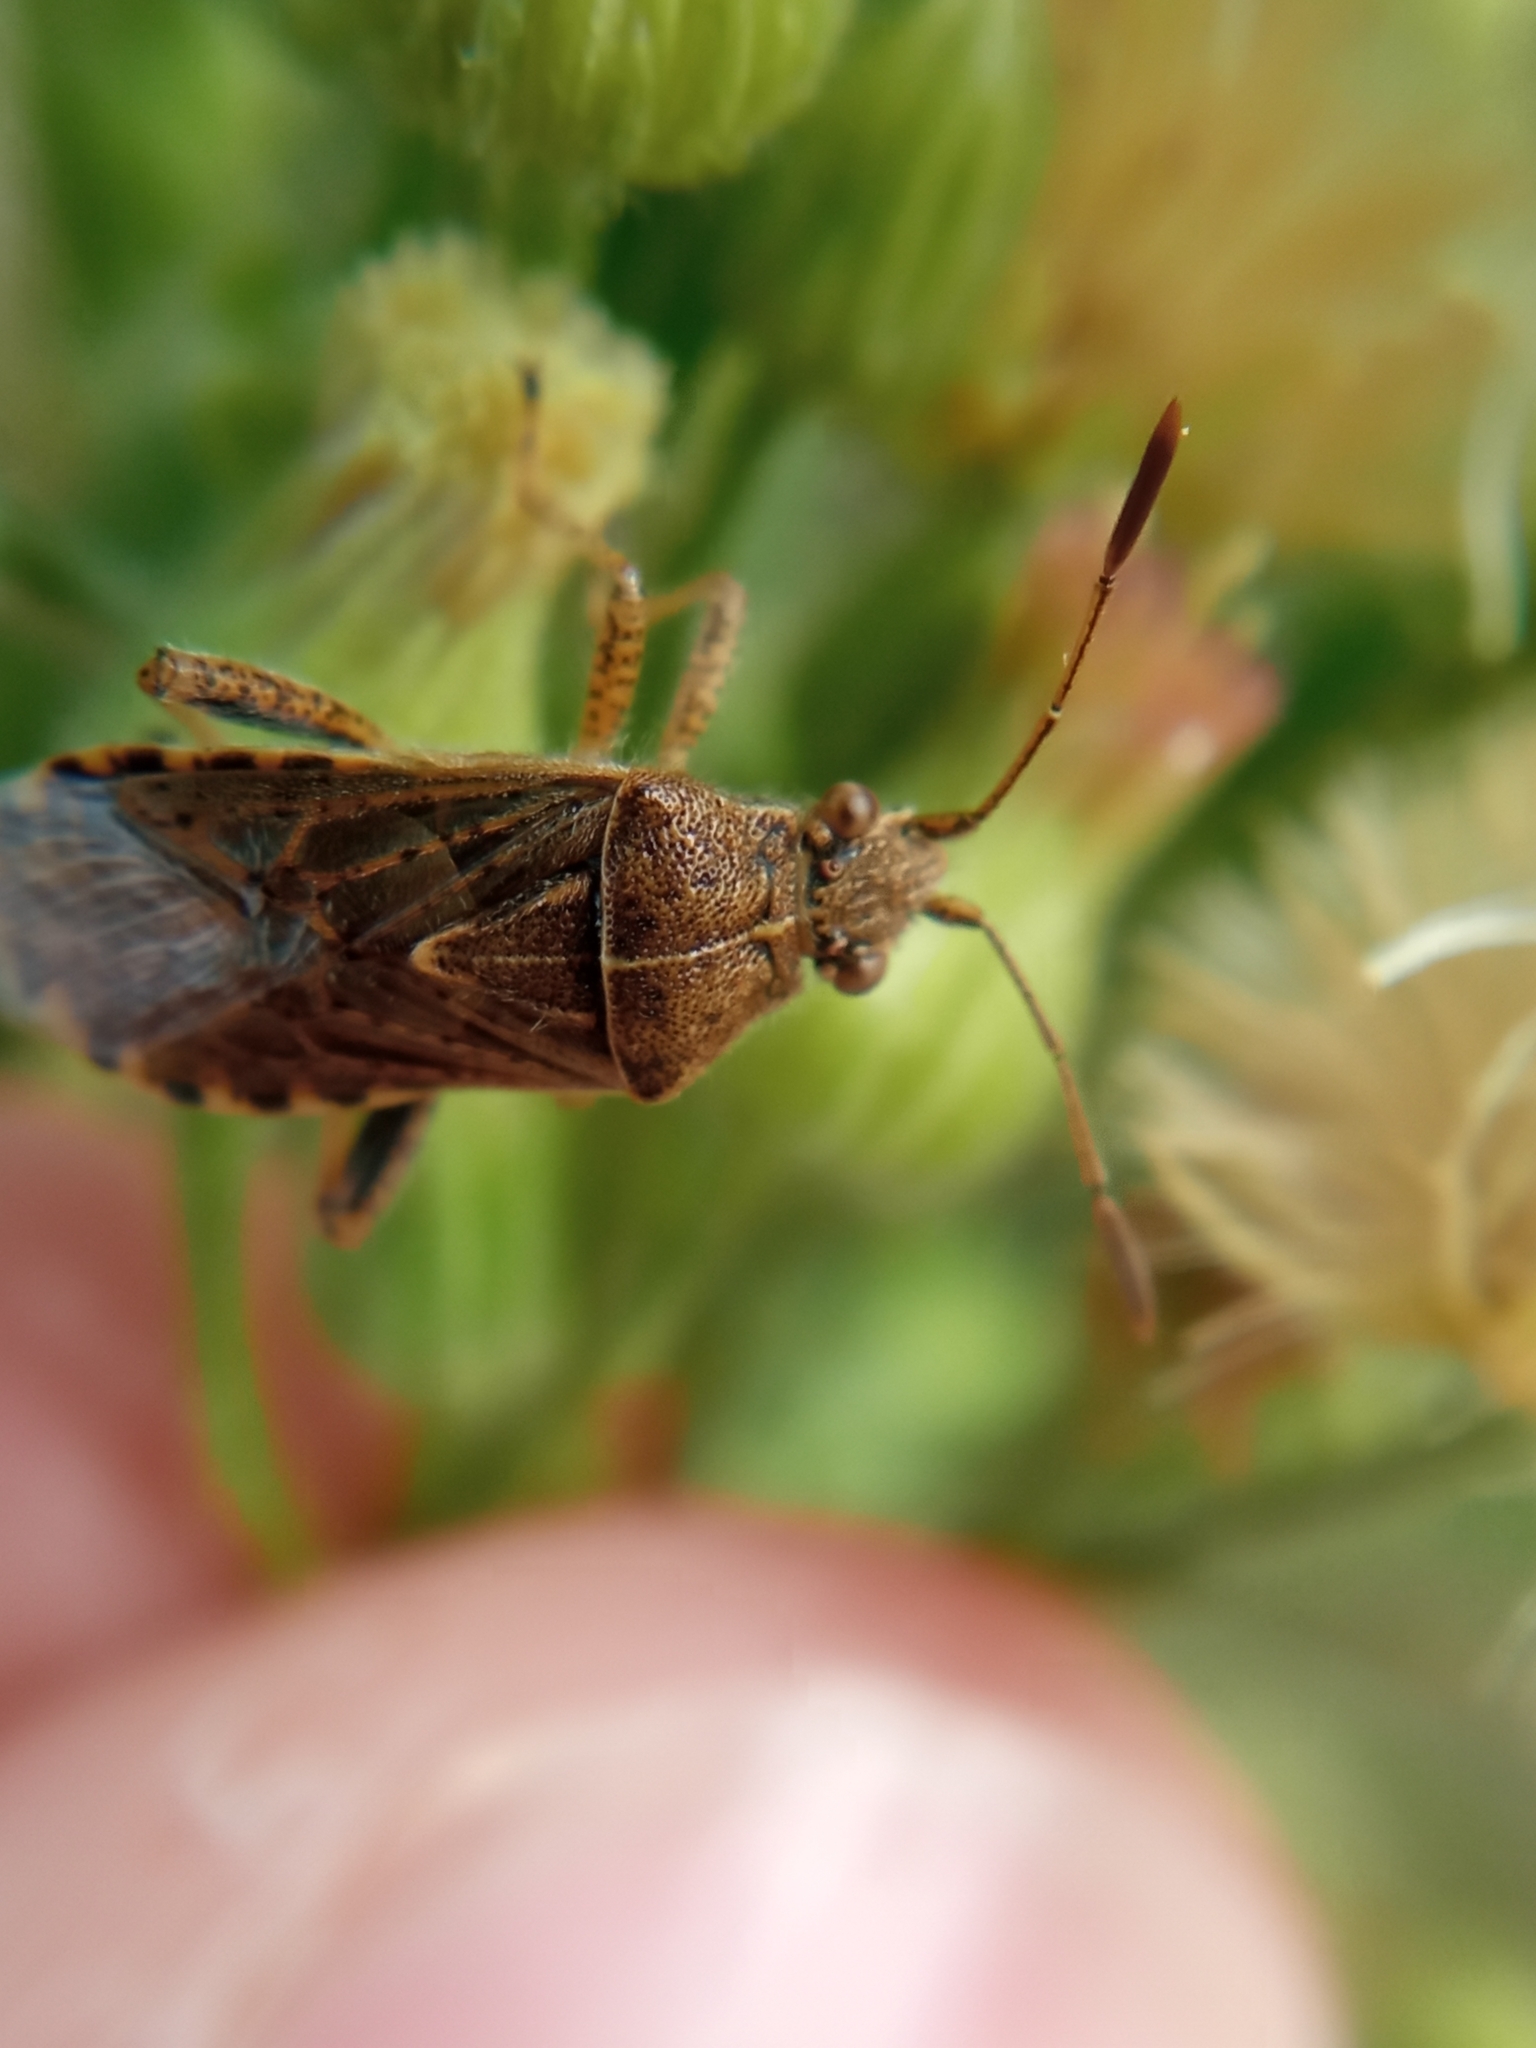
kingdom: Animalia
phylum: Arthropoda
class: Insecta
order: Hemiptera
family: Rhopalidae
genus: Stictopleurus
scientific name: Stictopleurus punctatonervosus
